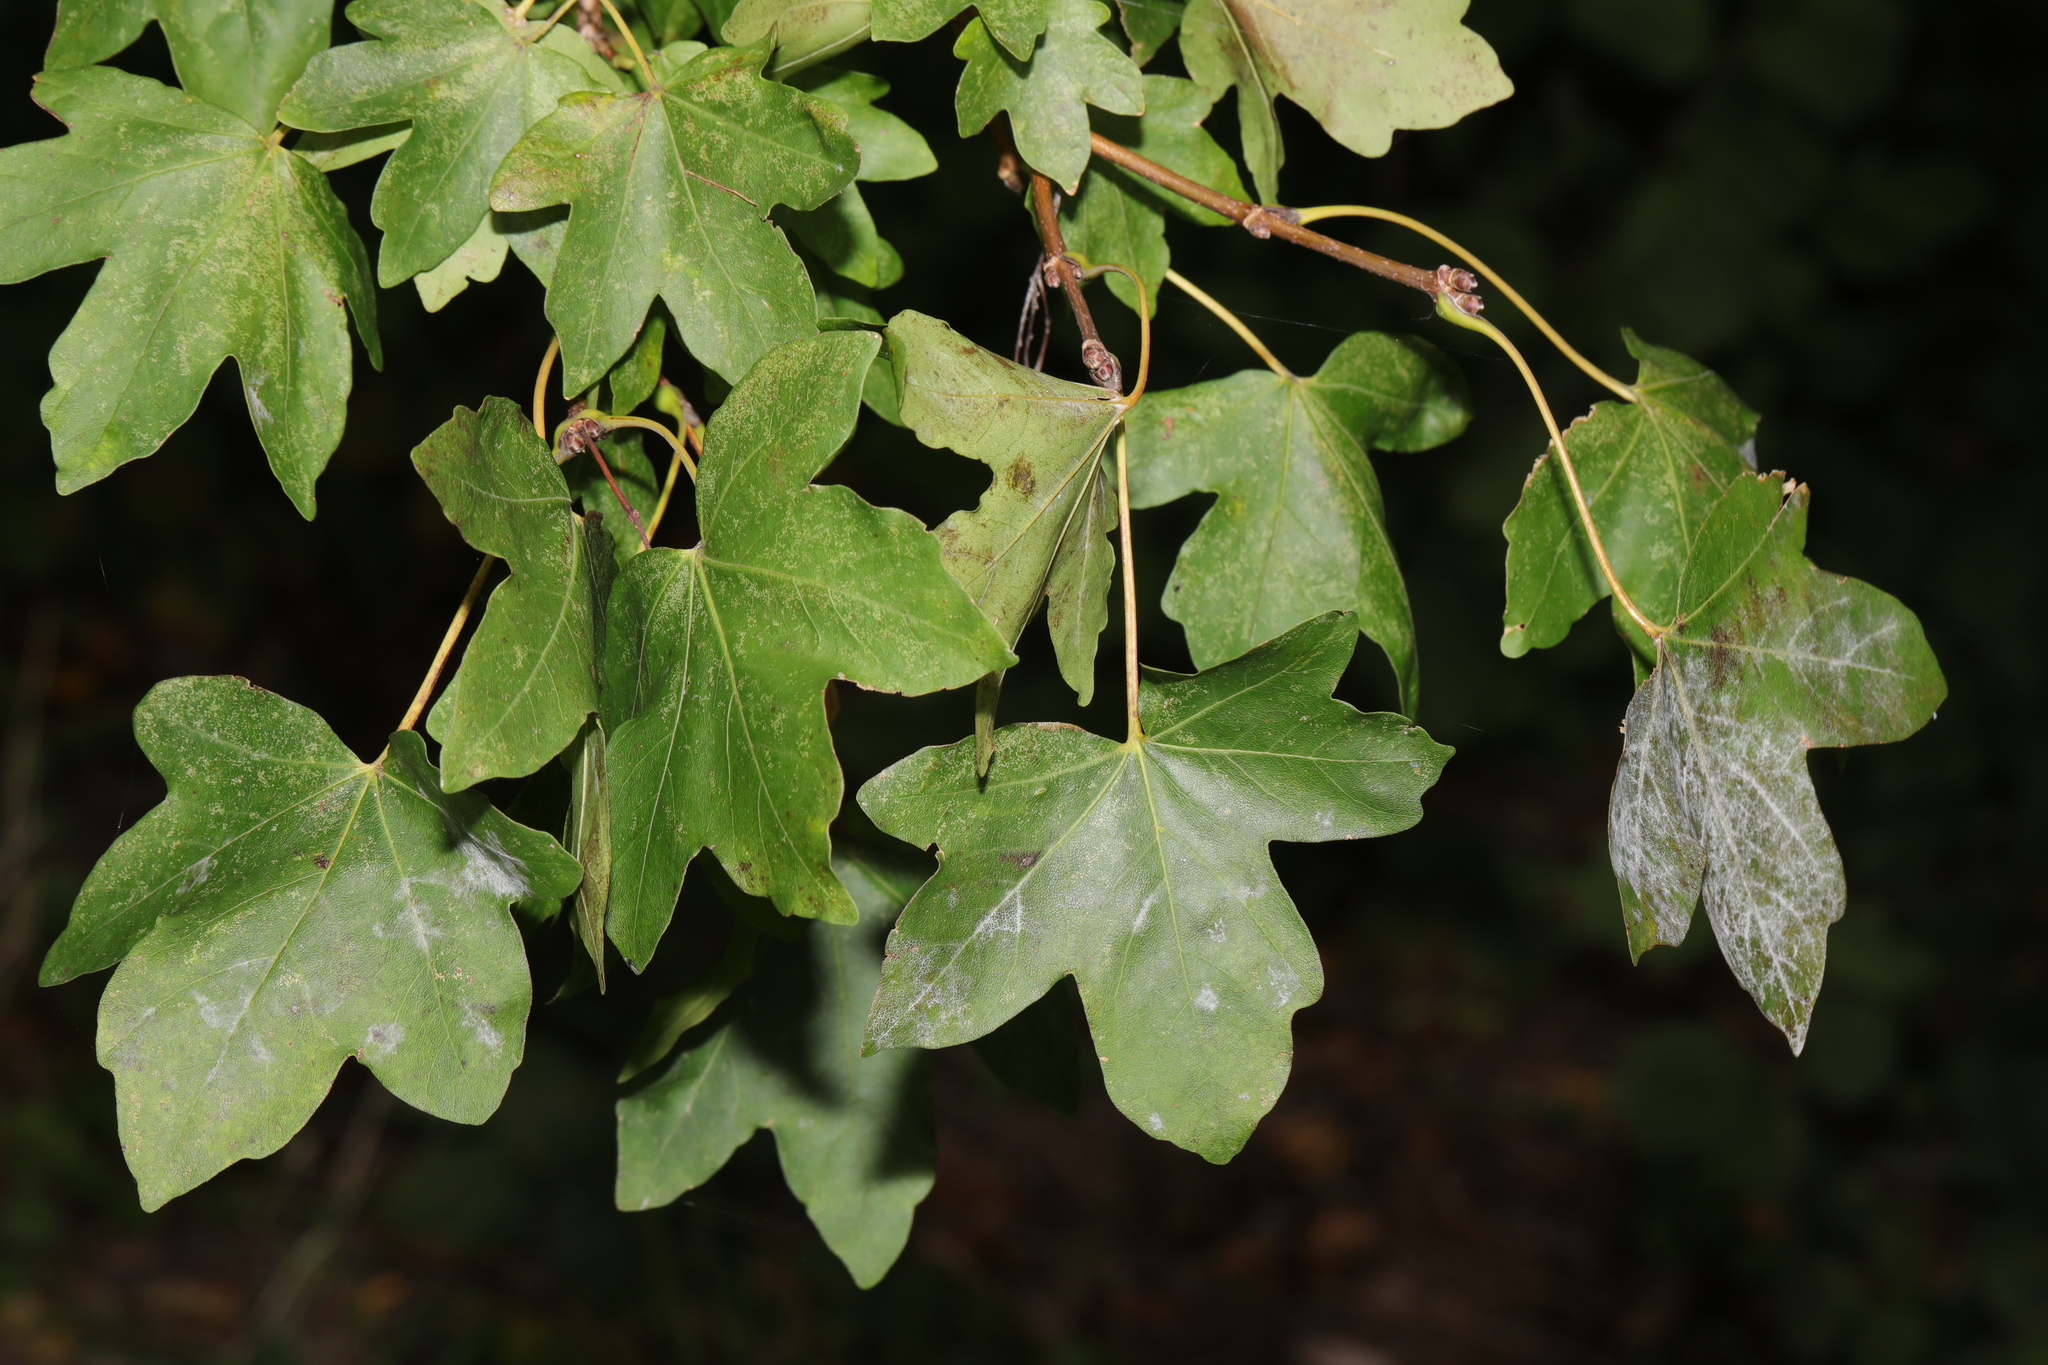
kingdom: Plantae
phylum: Tracheophyta
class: Magnoliopsida
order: Sapindales
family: Sapindaceae
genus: Acer
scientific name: Acer campestre
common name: Field maple
